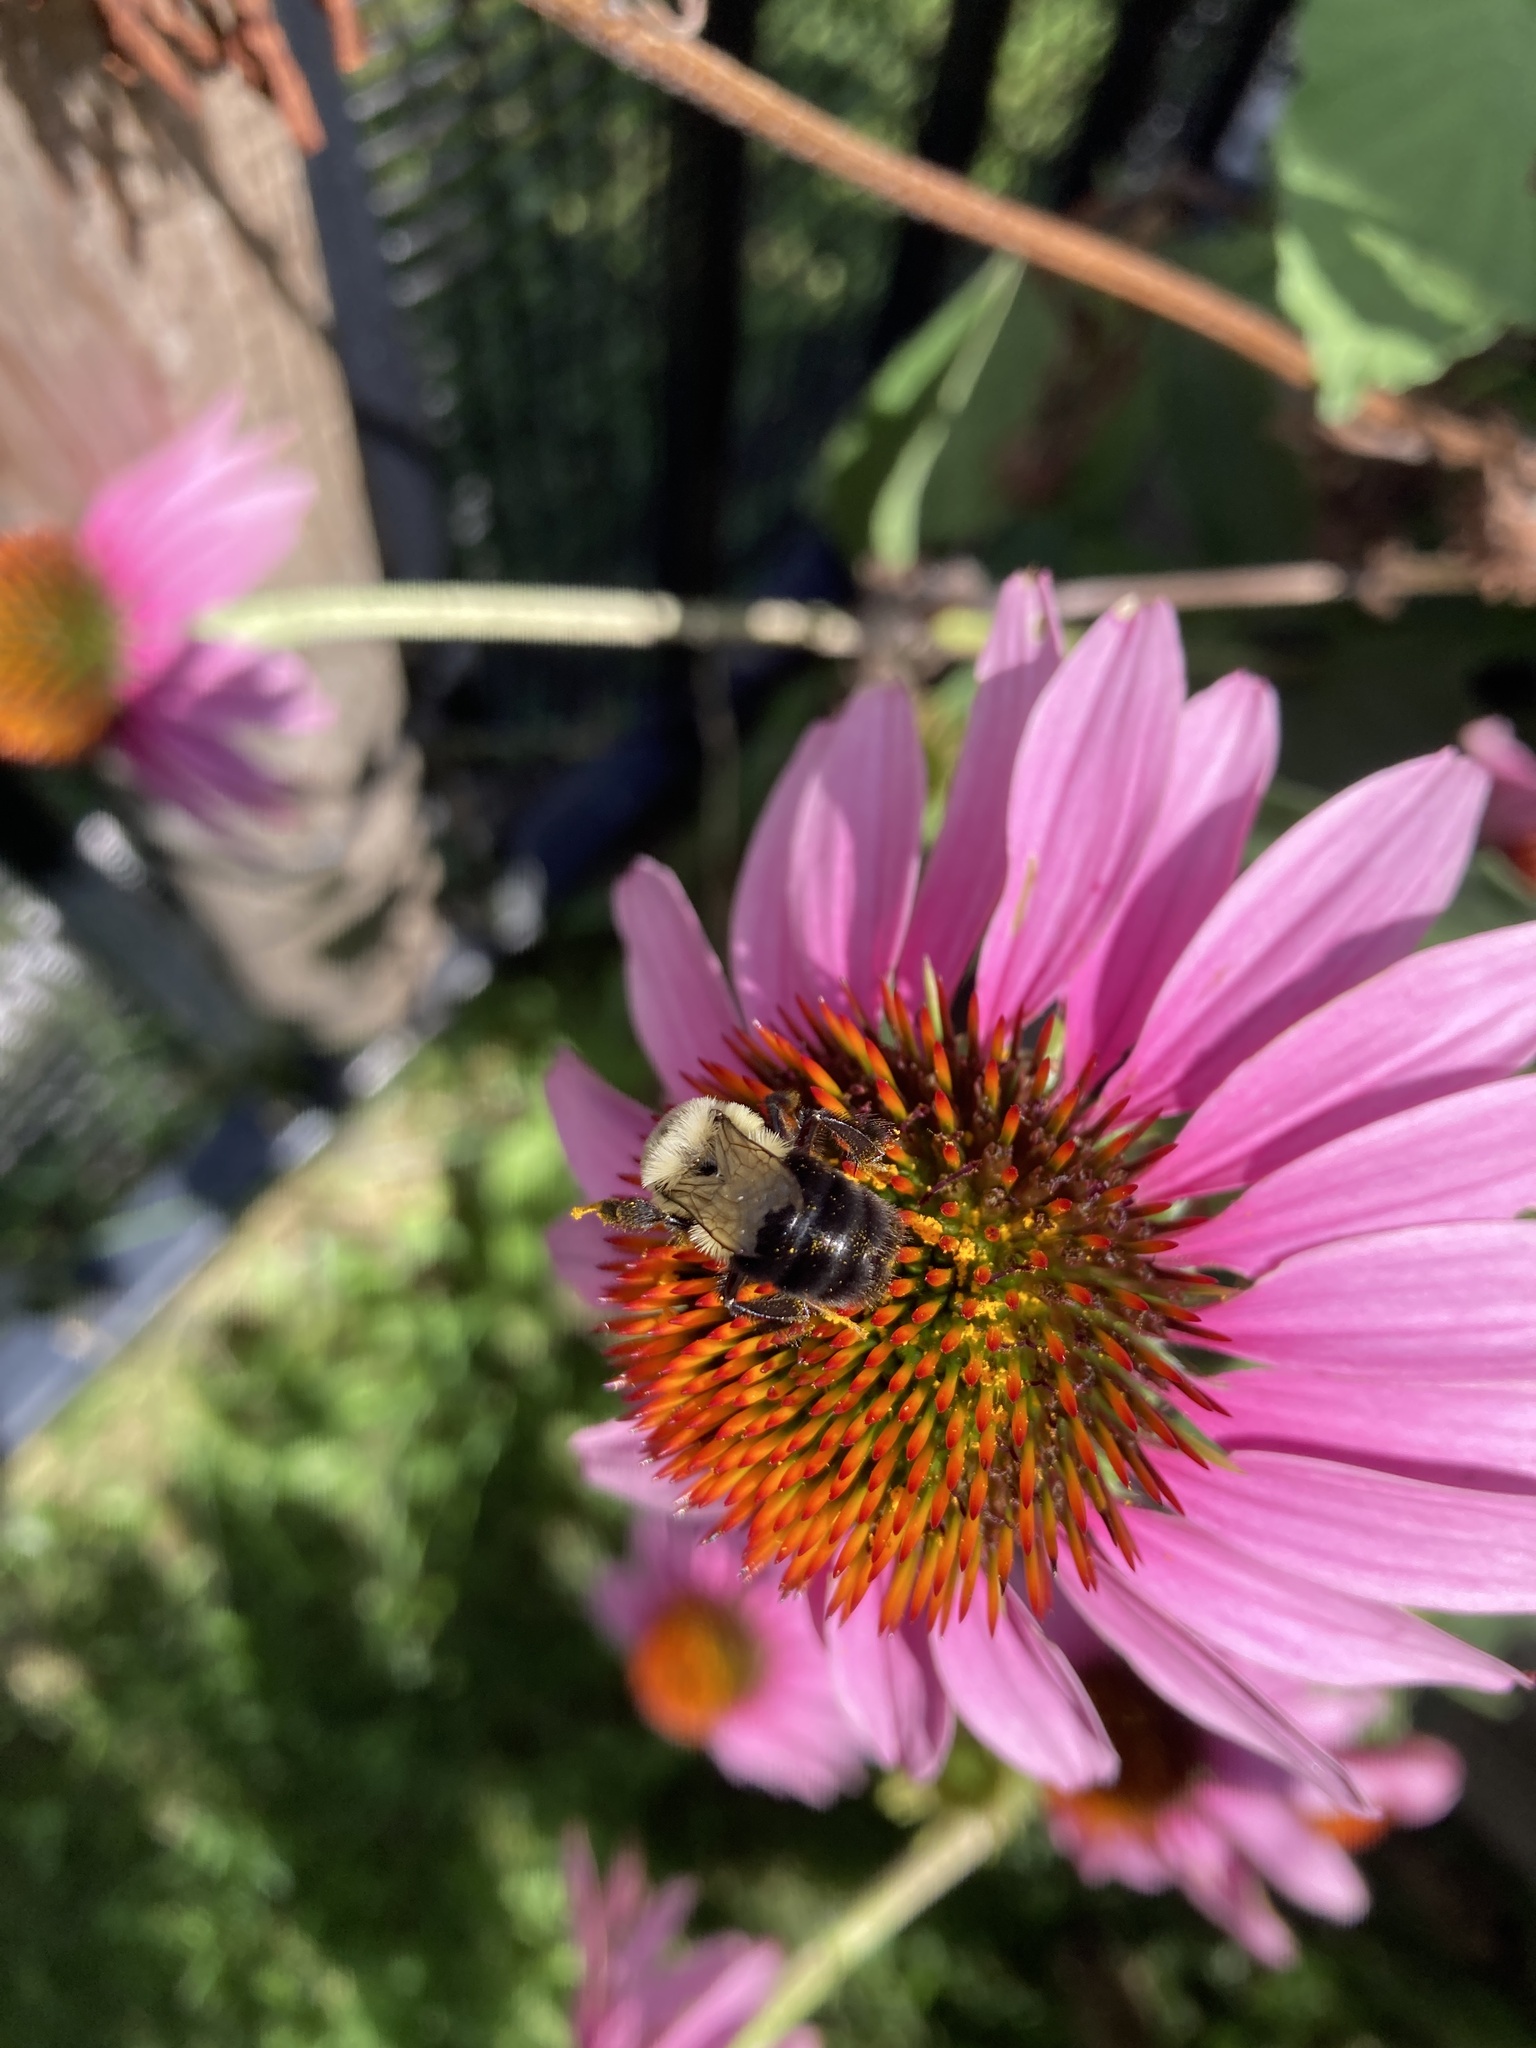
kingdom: Animalia
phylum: Arthropoda
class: Insecta
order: Hymenoptera
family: Apidae
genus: Bombus
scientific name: Bombus impatiens
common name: Common eastern bumble bee
